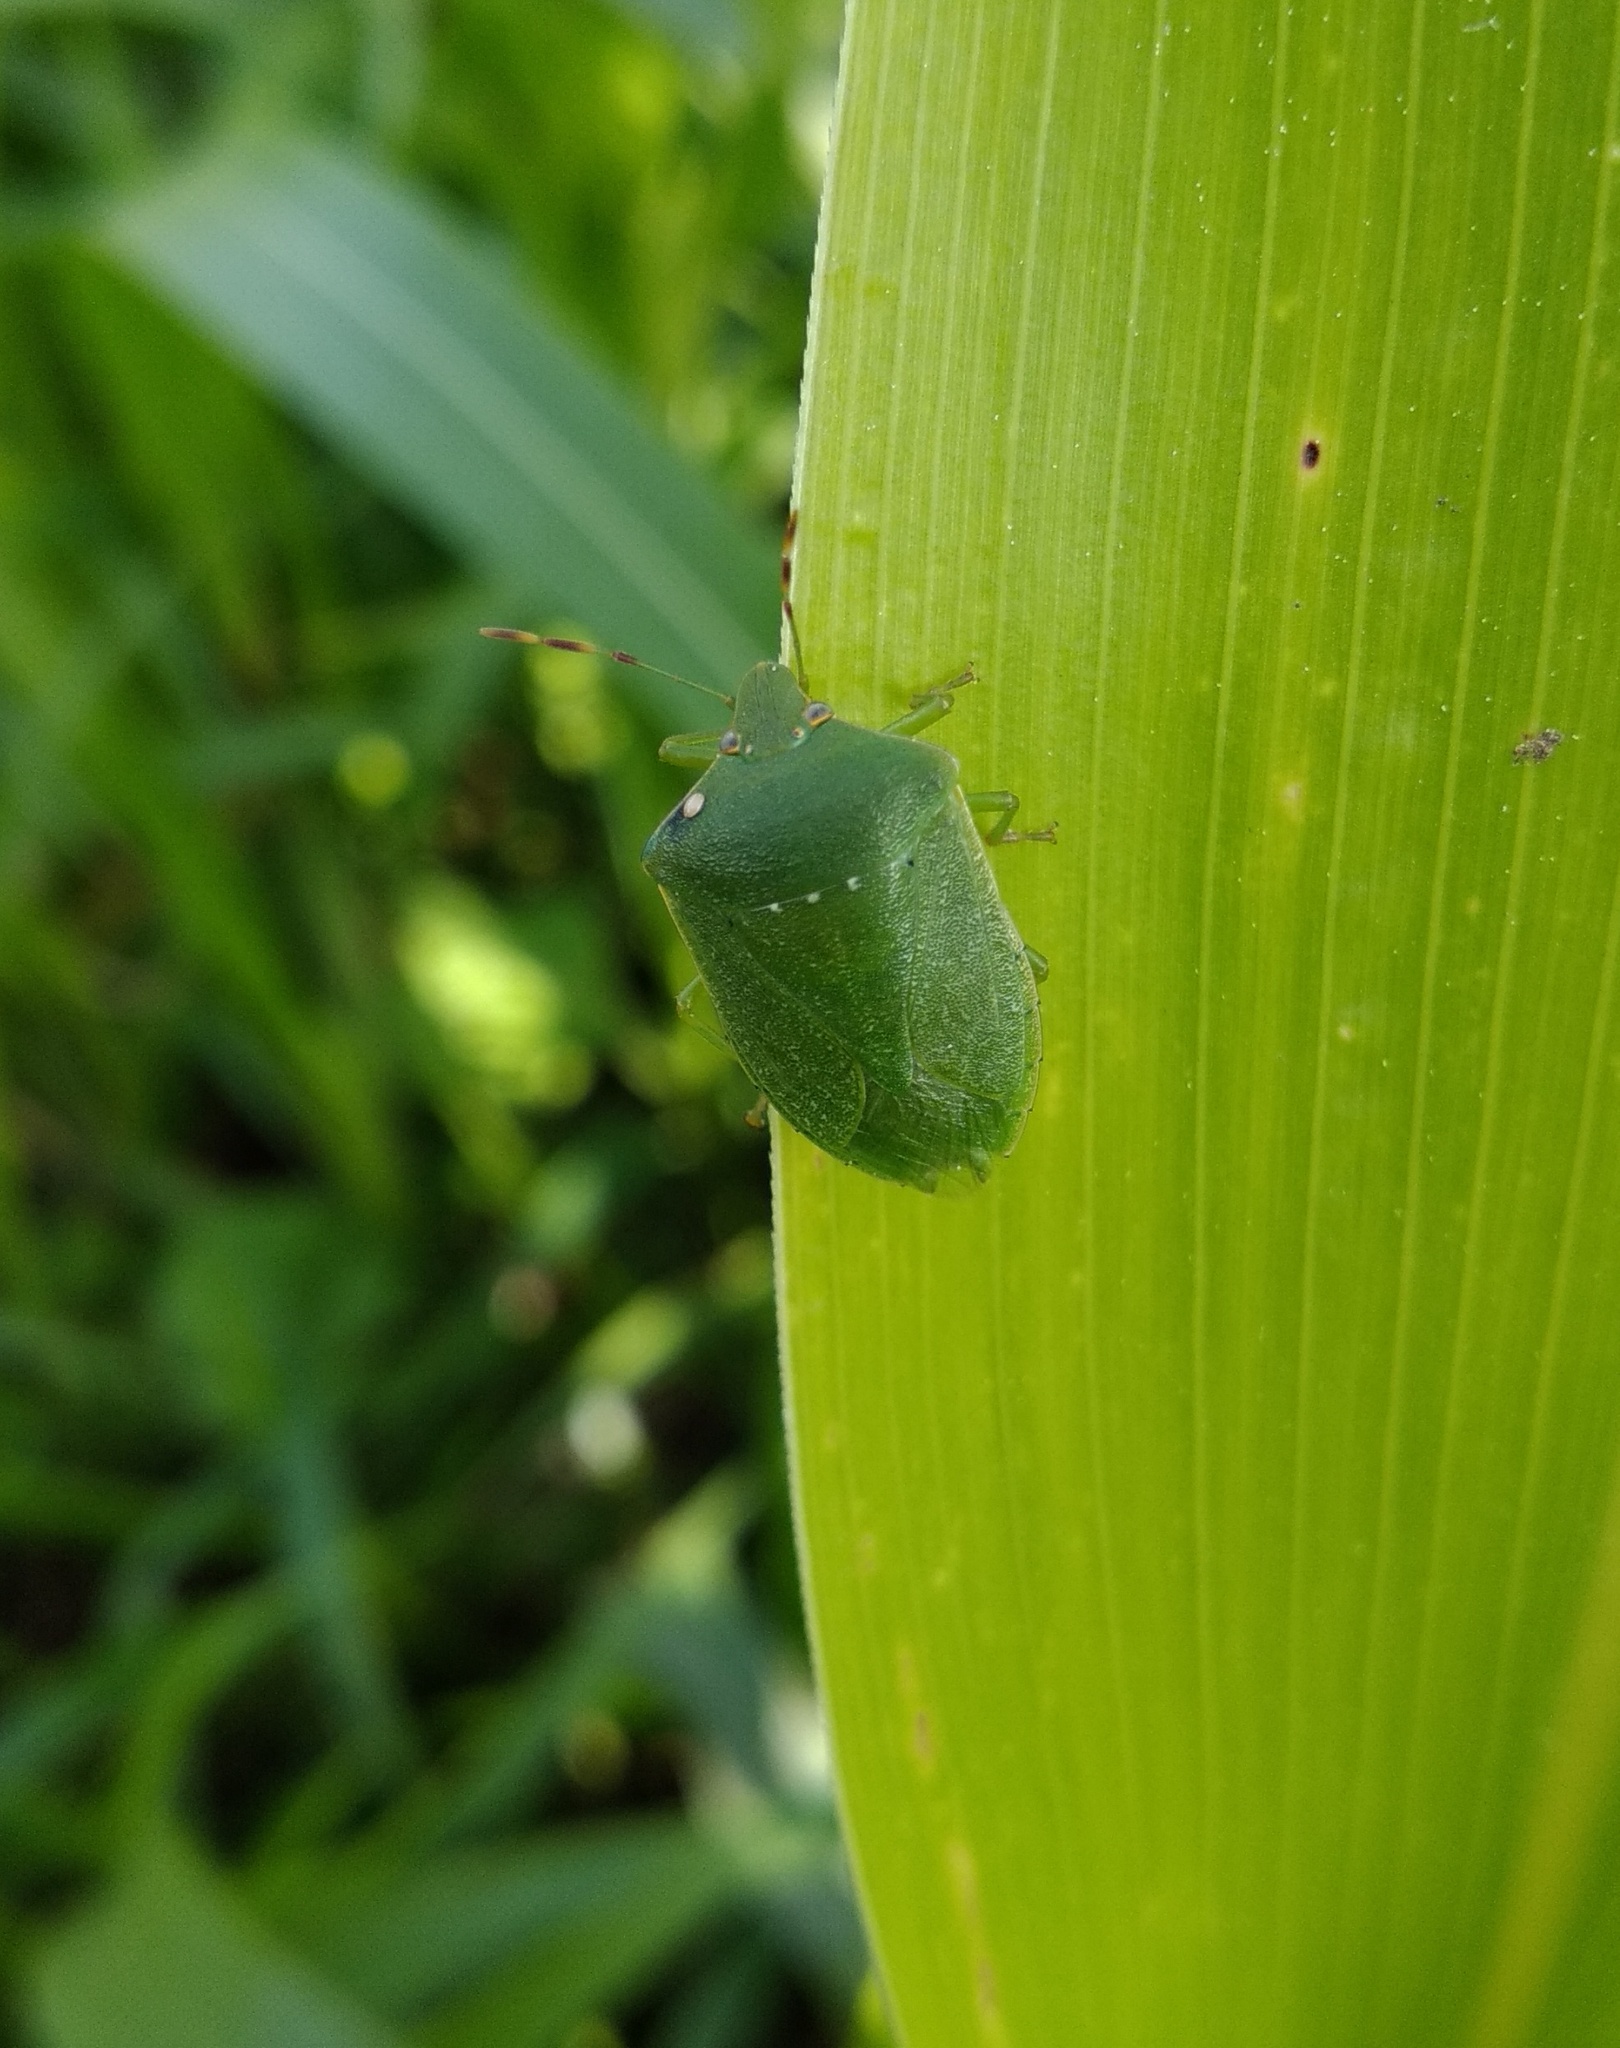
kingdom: Animalia
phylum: Arthropoda
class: Insecta
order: Hemiptera
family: Pentatomidae
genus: Nezara
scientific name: Nezara viridula
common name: Southern green stink bug
